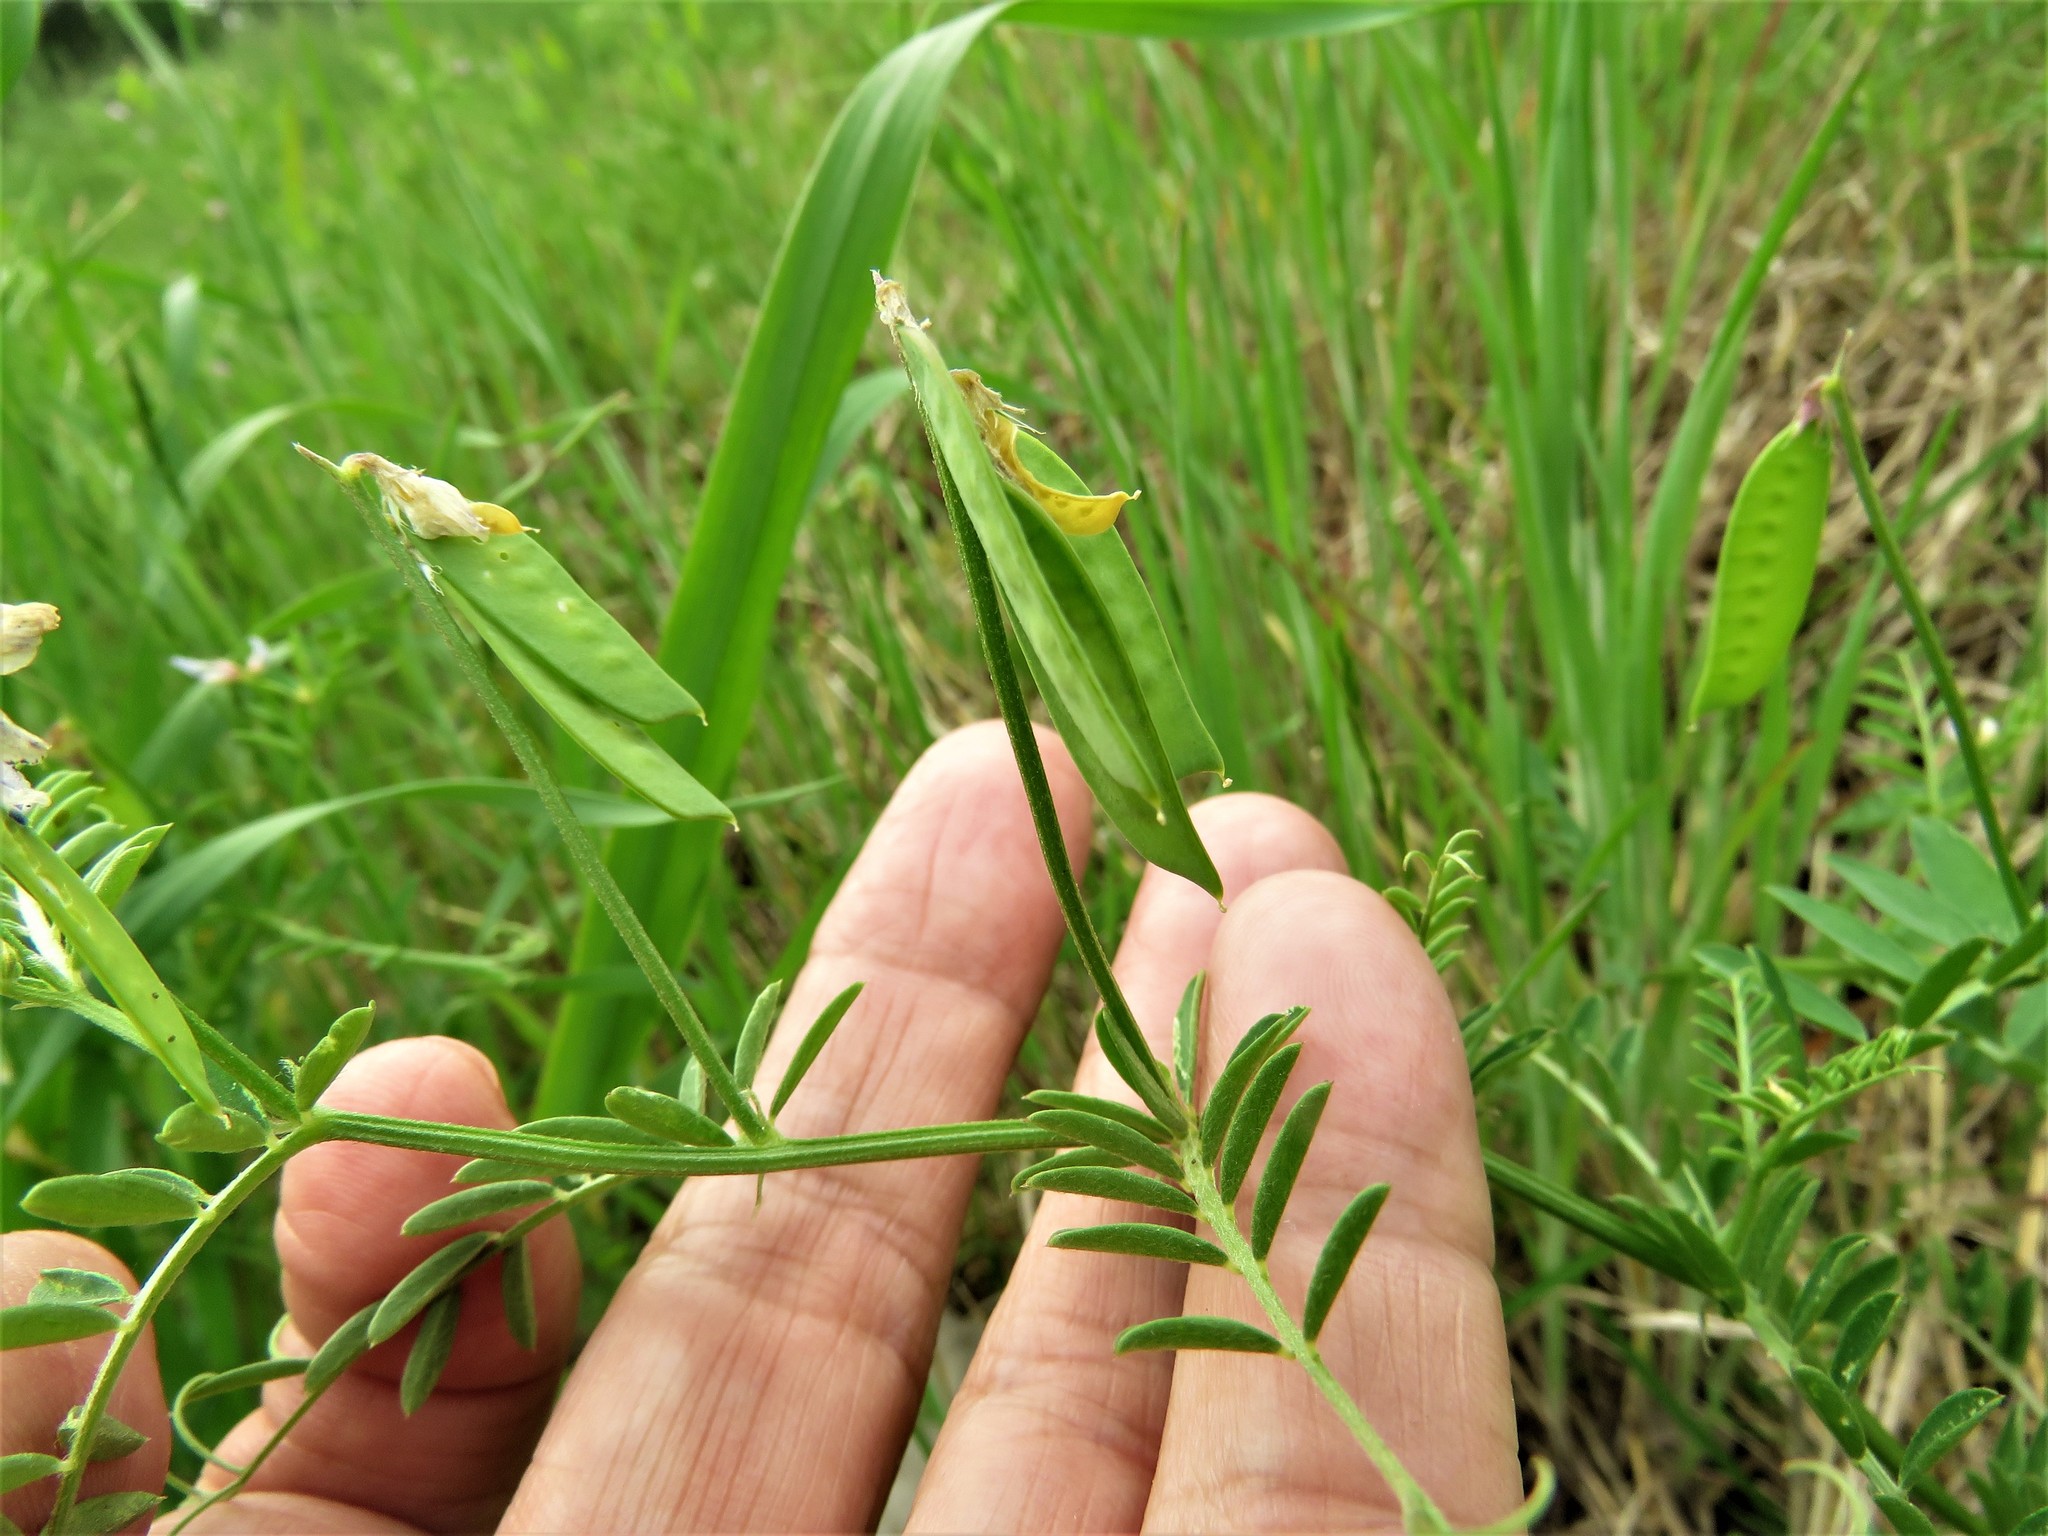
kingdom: Plantae
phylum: Tracheophyta
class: Magnoliopsida
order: Fabales
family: Fabaceae
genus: Vicia
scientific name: Vicia ludoviciana
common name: Louisiana vetch
